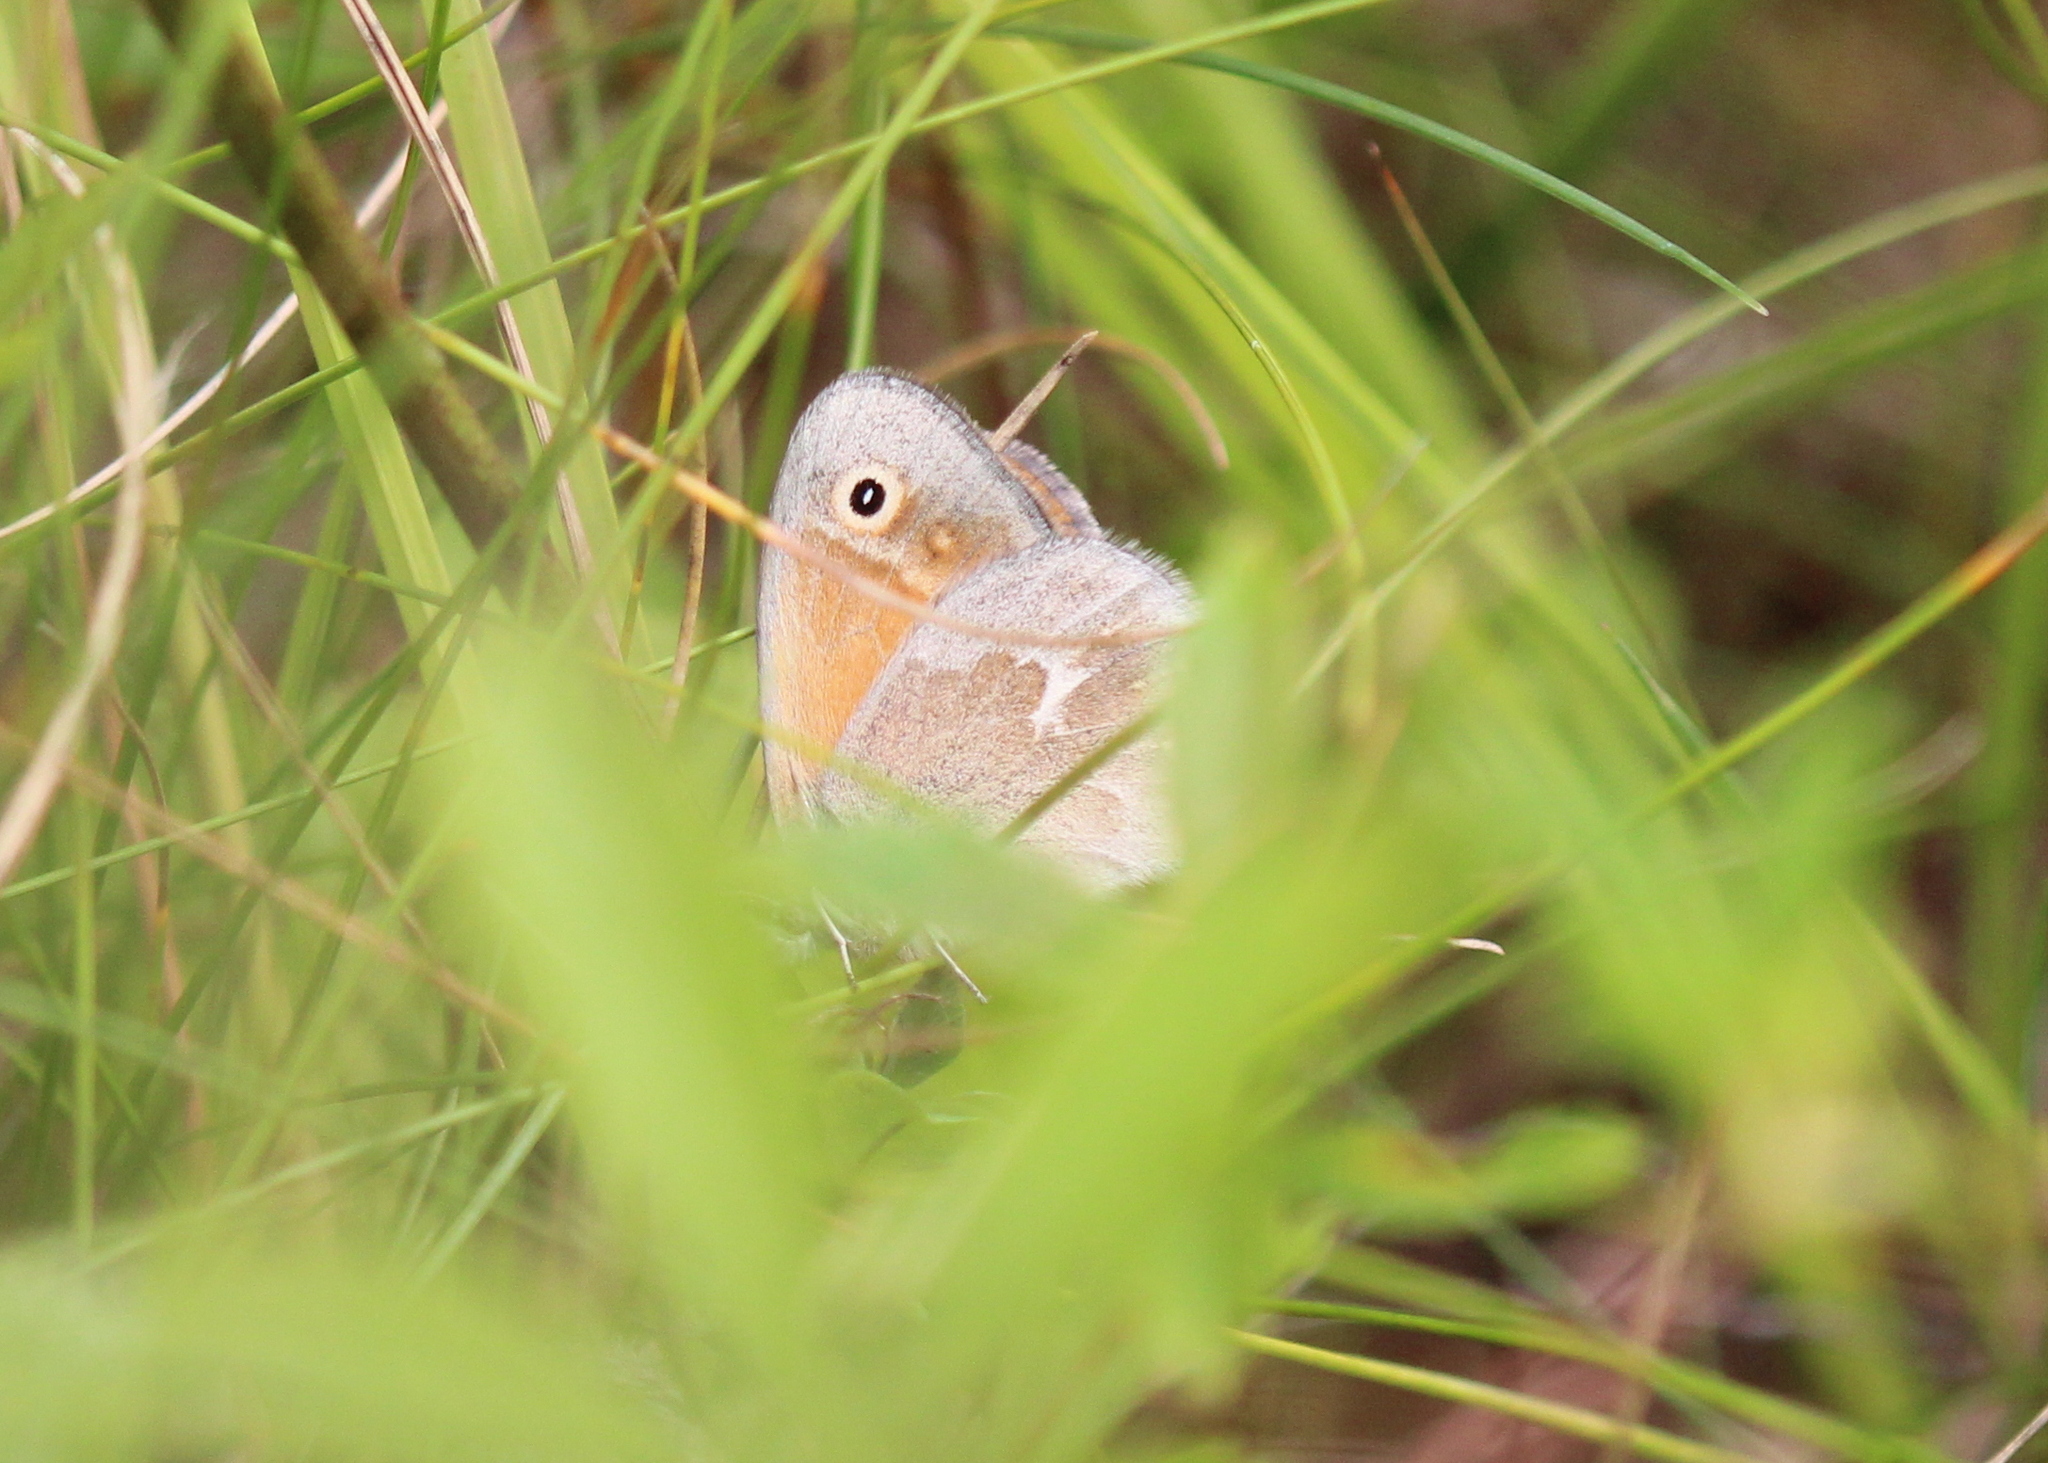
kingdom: Animalia
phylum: Arthropoda
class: Insecta
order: Lepidoptera
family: Nymphalidae
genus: Coenonympha
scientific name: Coenonympha california
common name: Common ringlet
